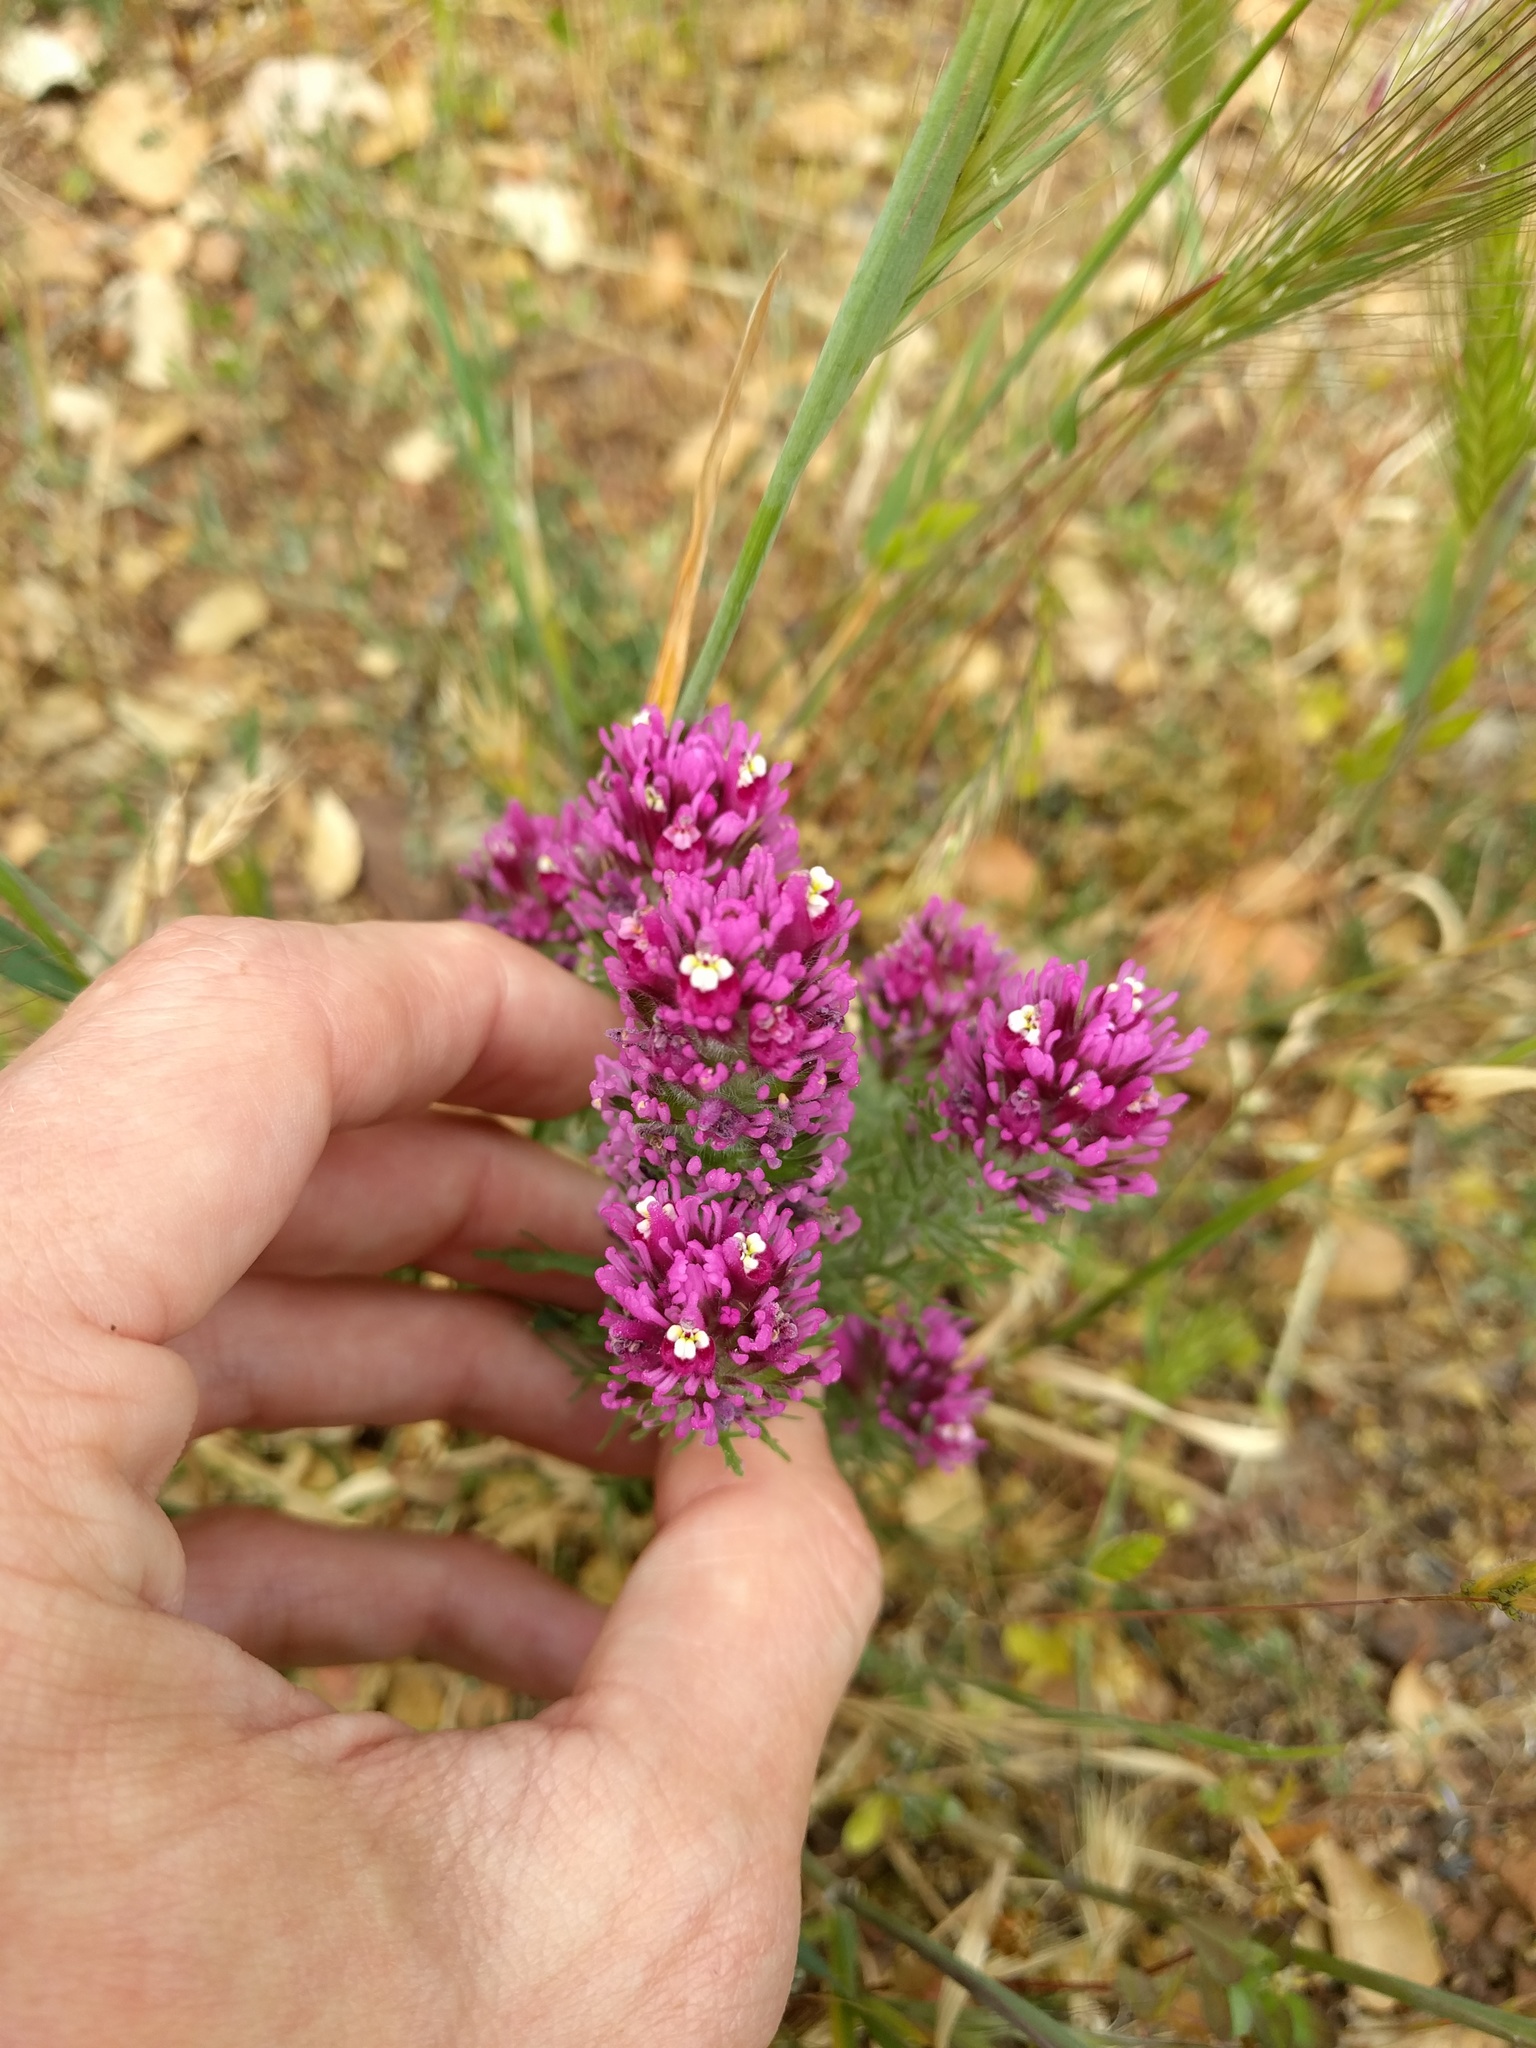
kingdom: Plantae
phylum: Tracheophyta
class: Magnoliopsida
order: Lamiales
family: Orobanchaceae
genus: Castilleja
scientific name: Castilleja exserta
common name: Purple owl-clover
